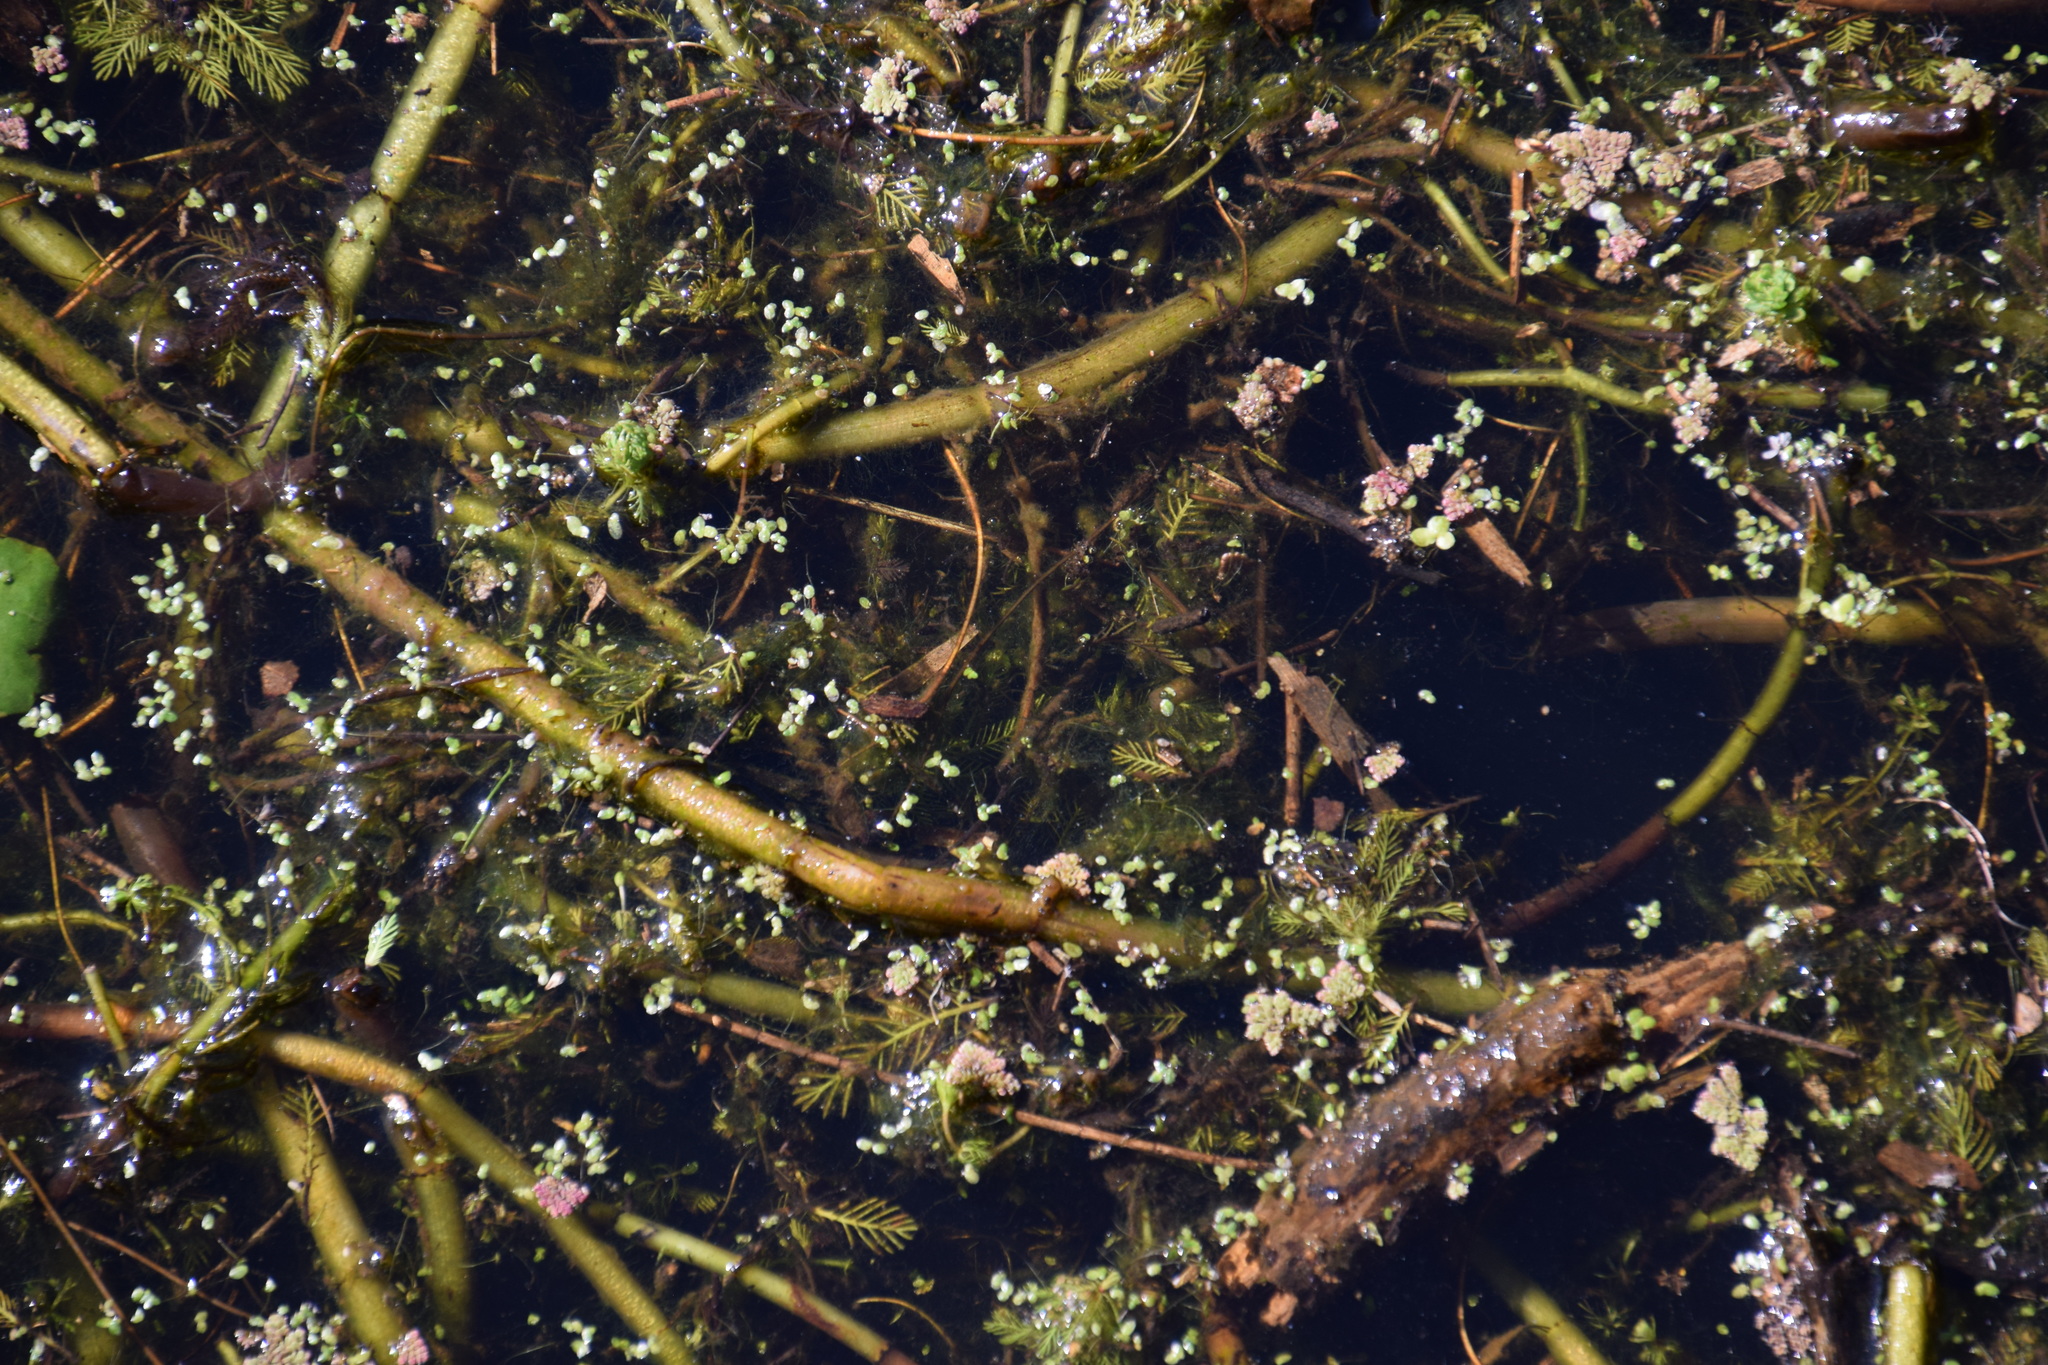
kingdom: Plantae
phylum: Tracheophyta
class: Magnoliopsida
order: Saxifragales
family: Haloragaceae
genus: Myriophyllum
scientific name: Myriophyllum aquaticum
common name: Parrot's feather
